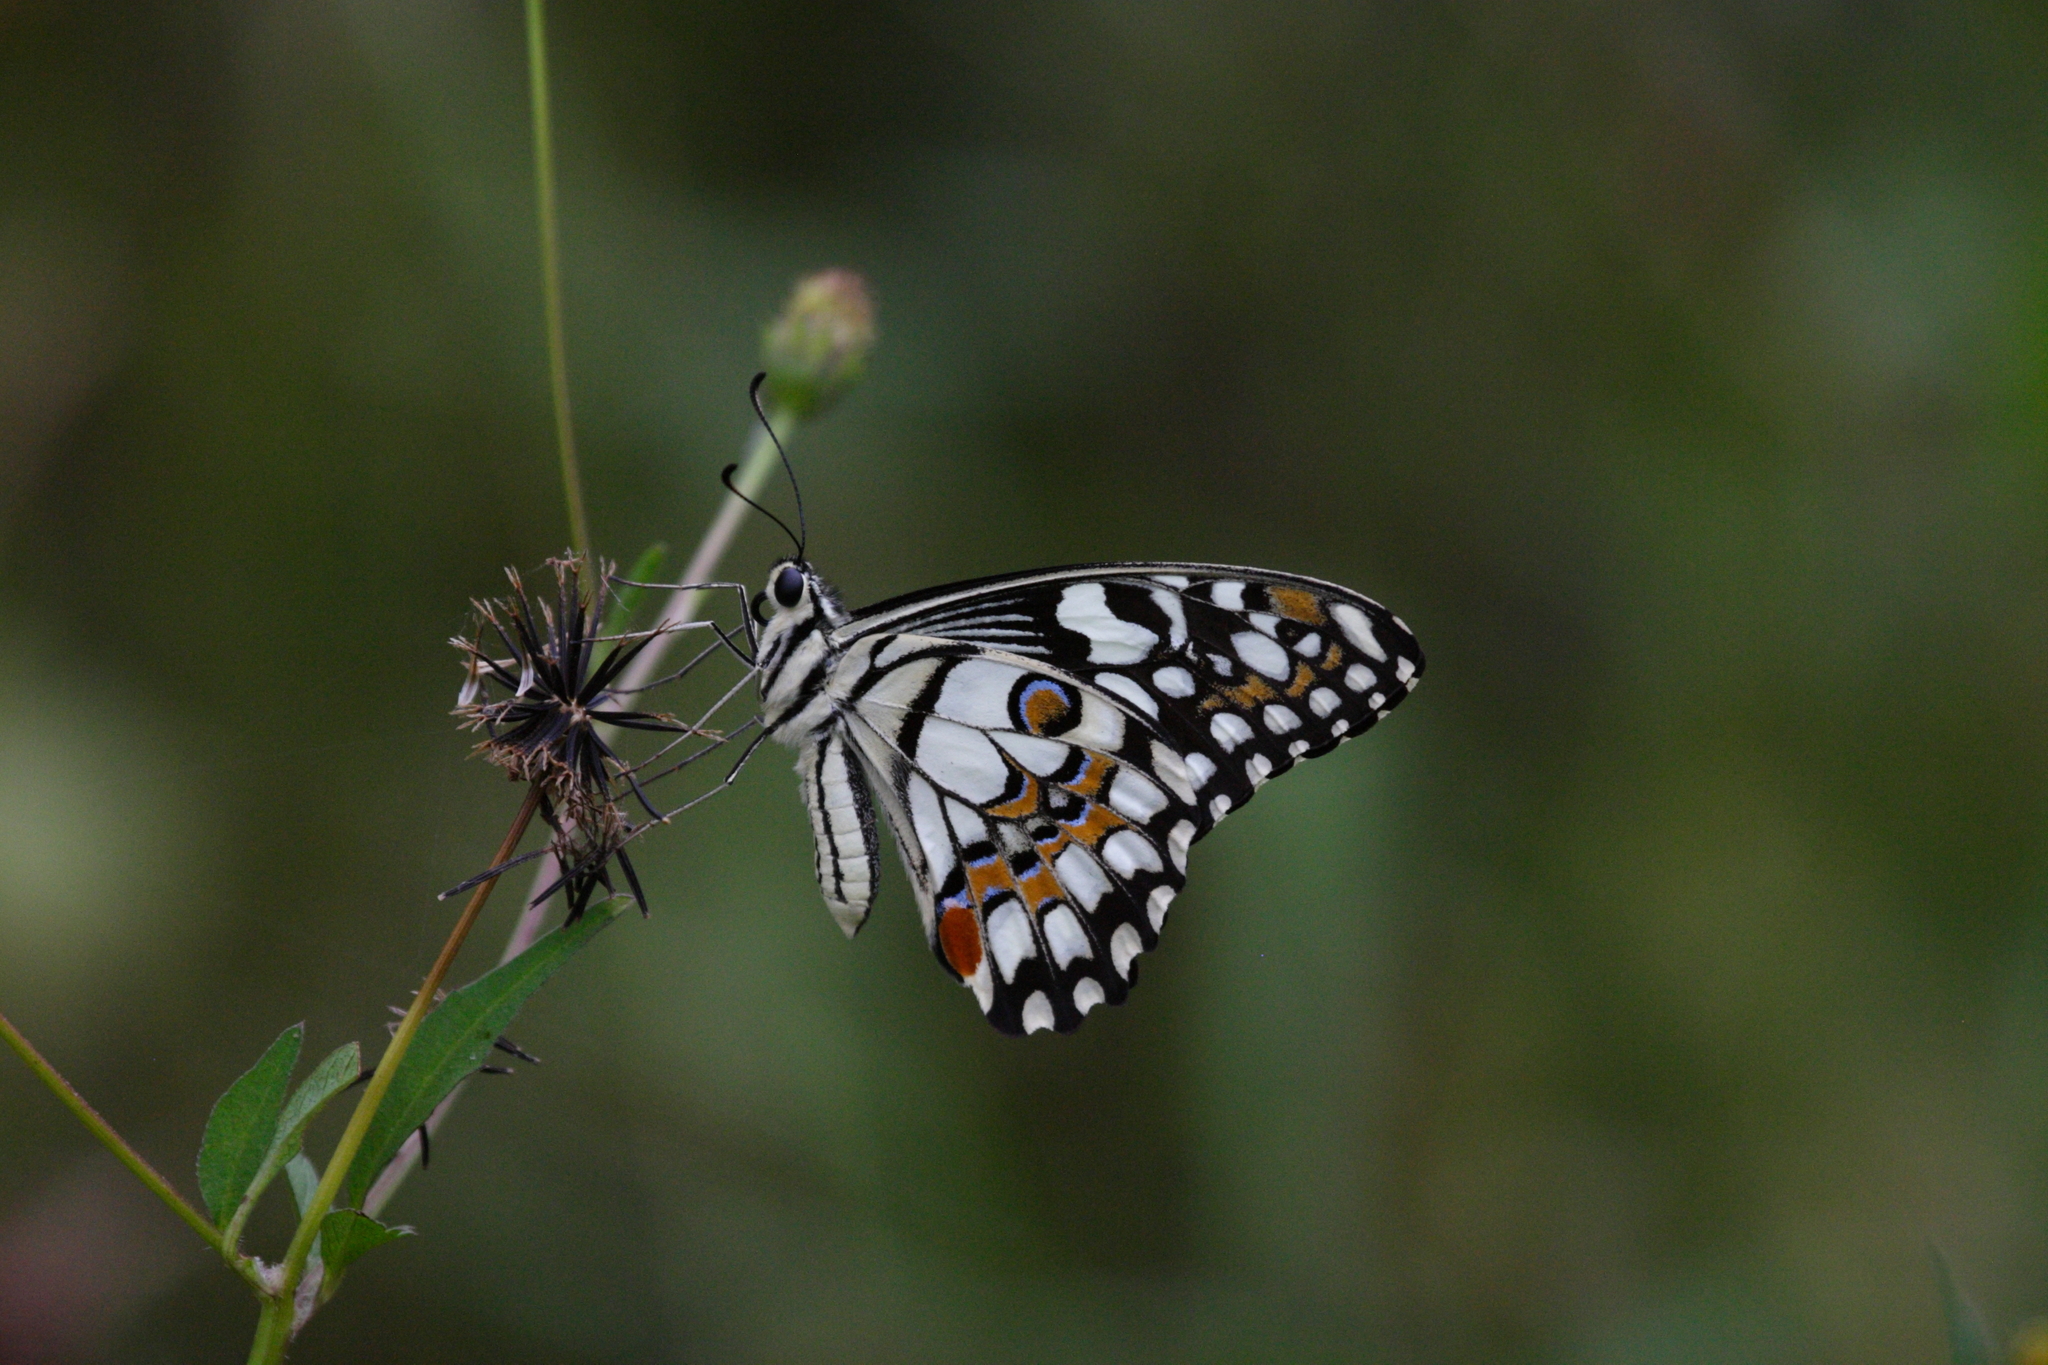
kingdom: Animalia
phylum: Arthropoda
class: Insecta
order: Lepidoptera
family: Papilionidae
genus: Papilio
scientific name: Papilio demoleus
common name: Lime butterfly
